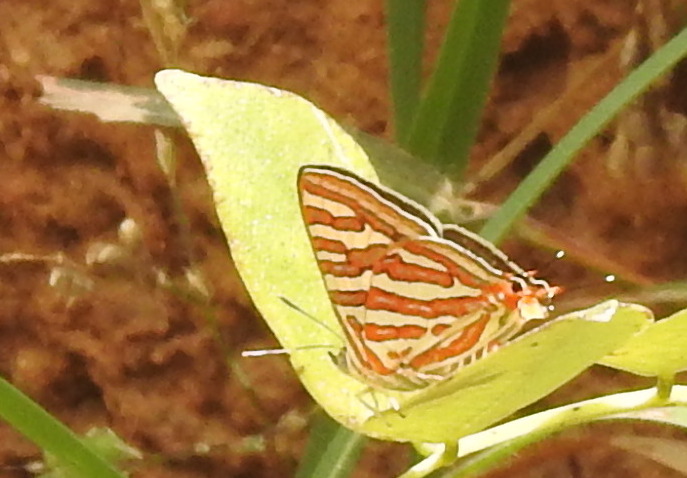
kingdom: Animalia
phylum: Arthropoda
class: Insecta
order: Lepidoptera
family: Lycaenidae
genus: Cigaritis
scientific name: Cigaritis vulcanus
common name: Common silverline
